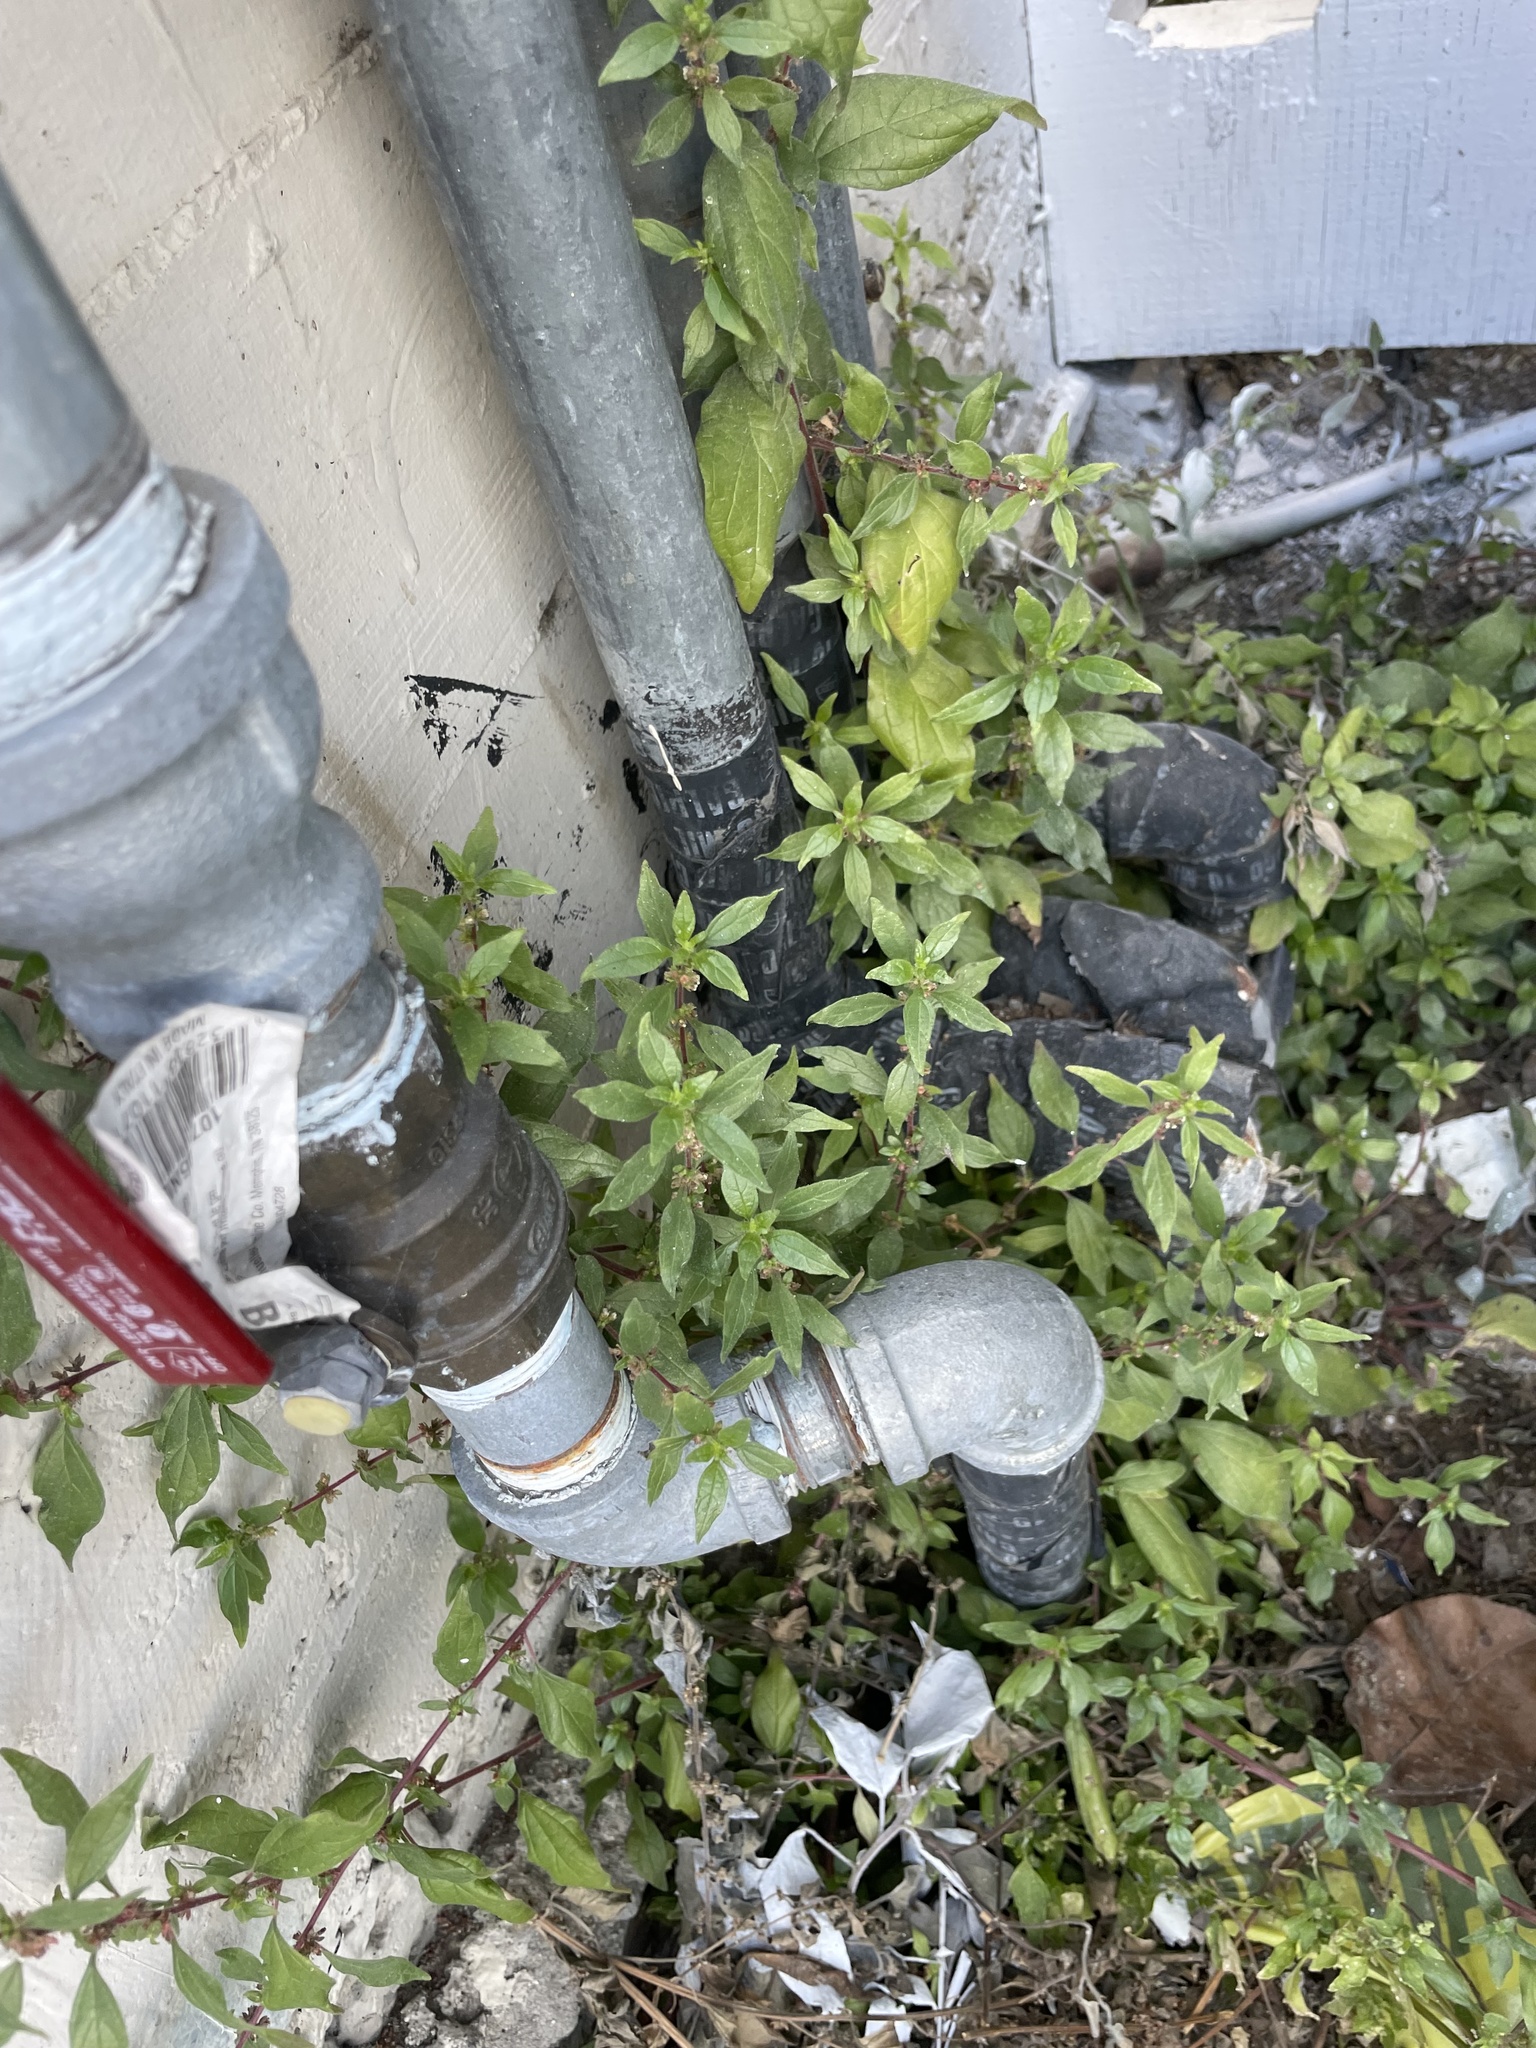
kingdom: Plantae
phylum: Tracheophyta
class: Magnoliopsida
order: Rosales
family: Urticaceae
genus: Parietaria
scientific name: Parietaria judaica
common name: Pellitory-of-the-wall
